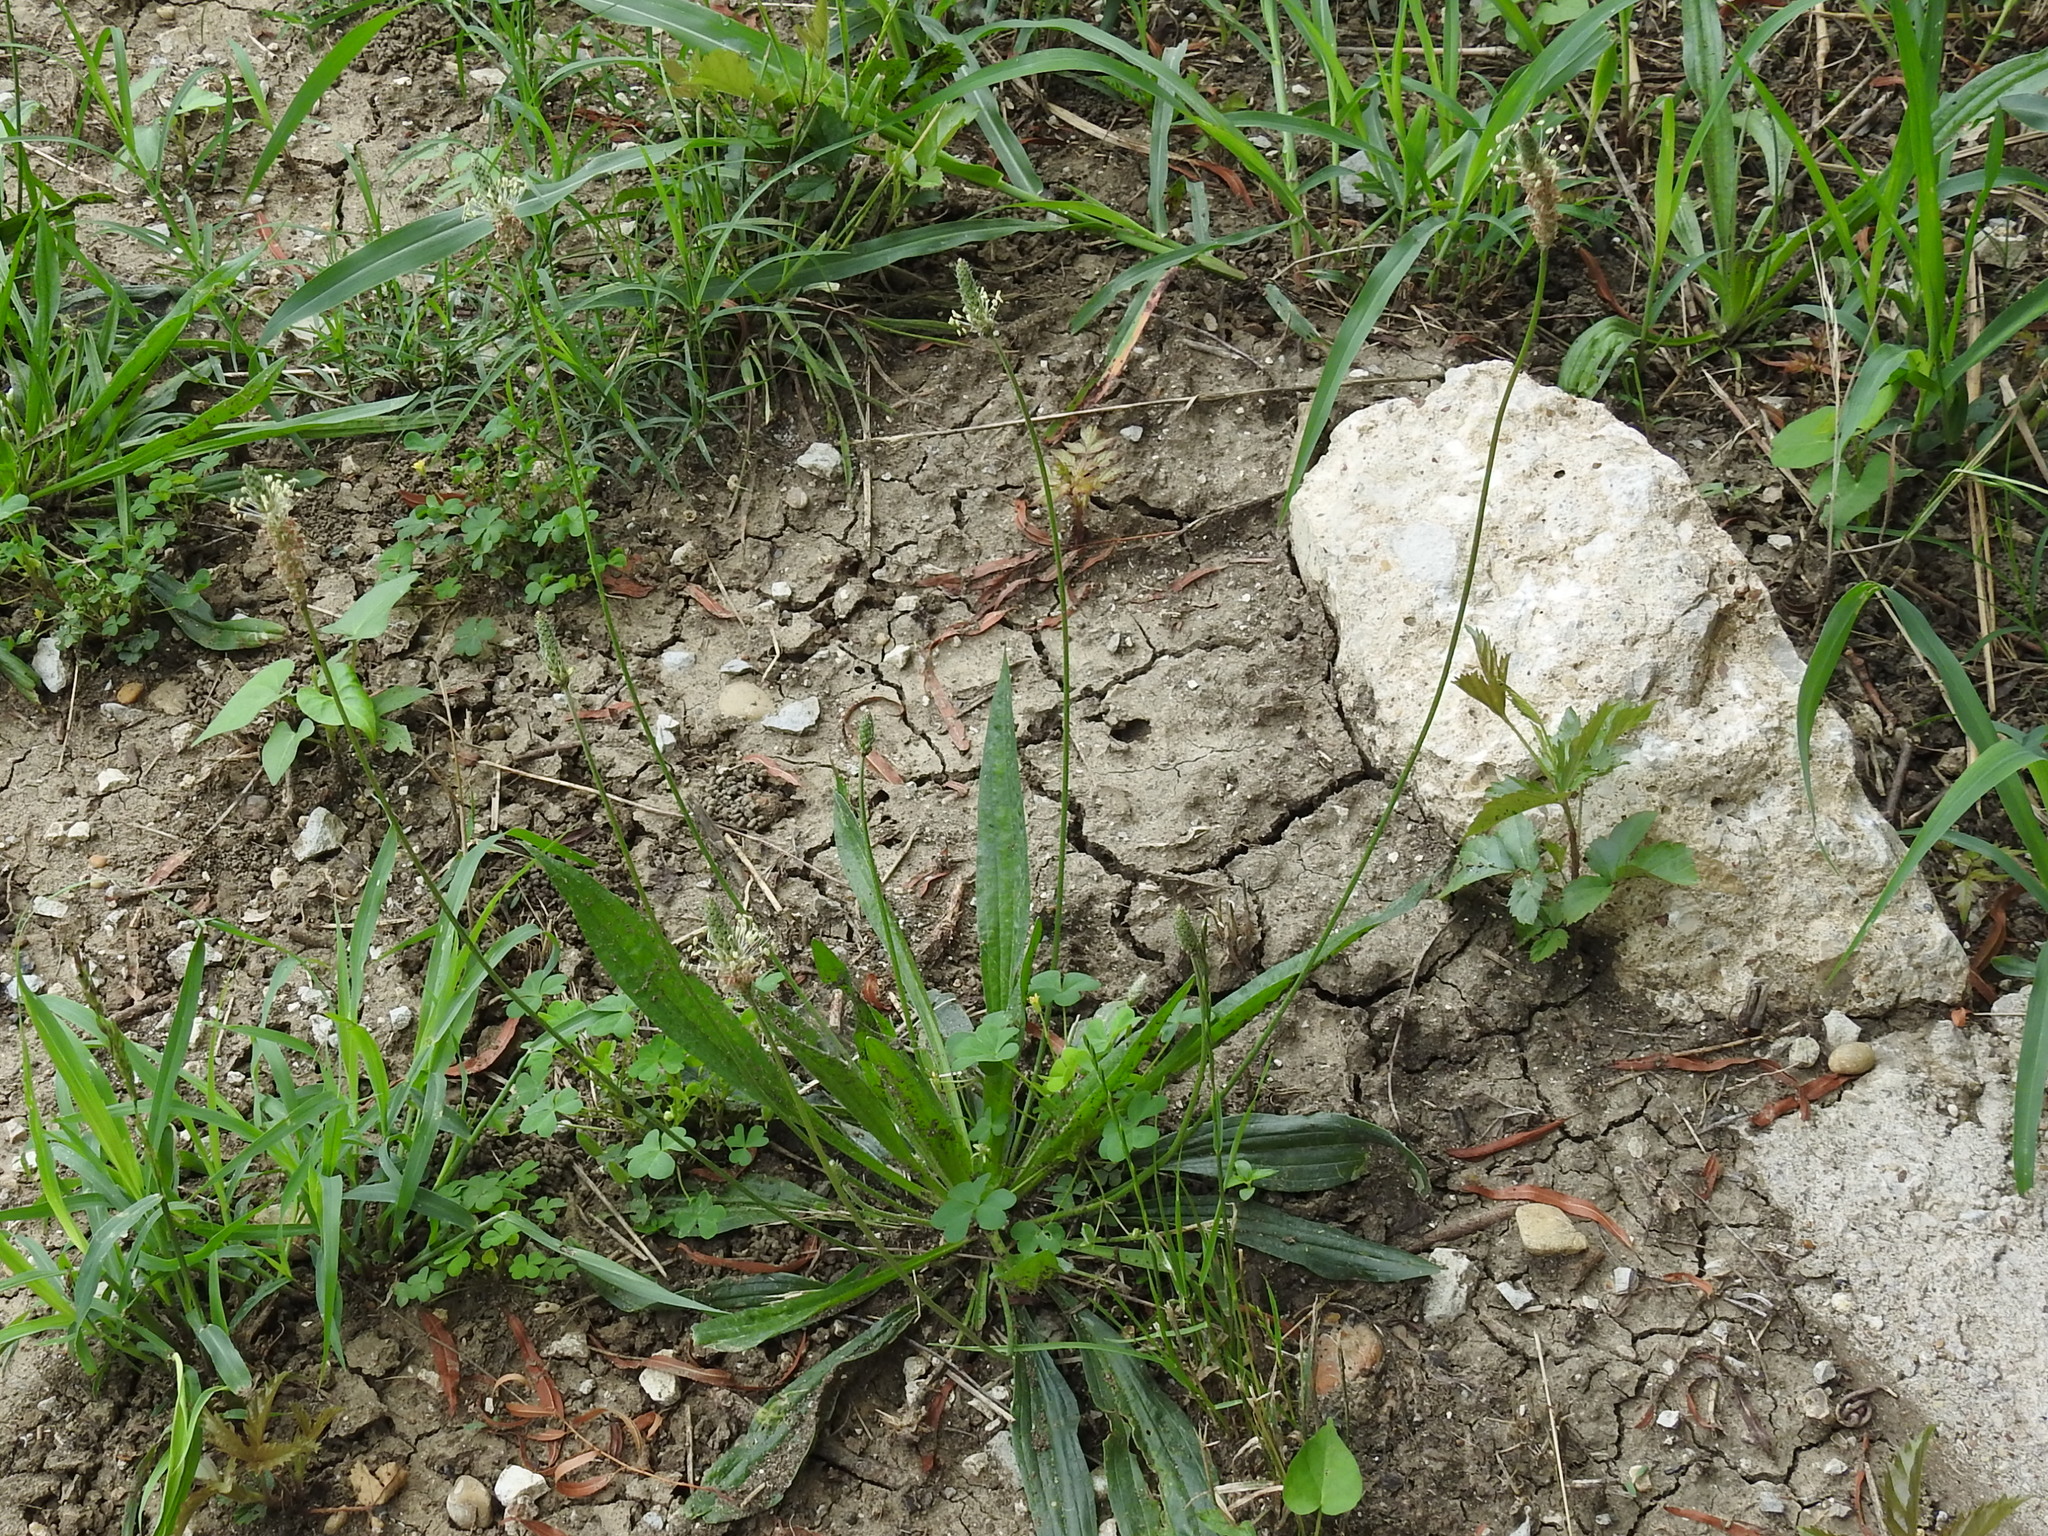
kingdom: Plantae
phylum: Tracheophyta
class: Magnoliopsida
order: Lamiales
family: Plantaginaceae
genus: Plantago
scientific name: Plantago lanceolata
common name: Ribwort plantain
